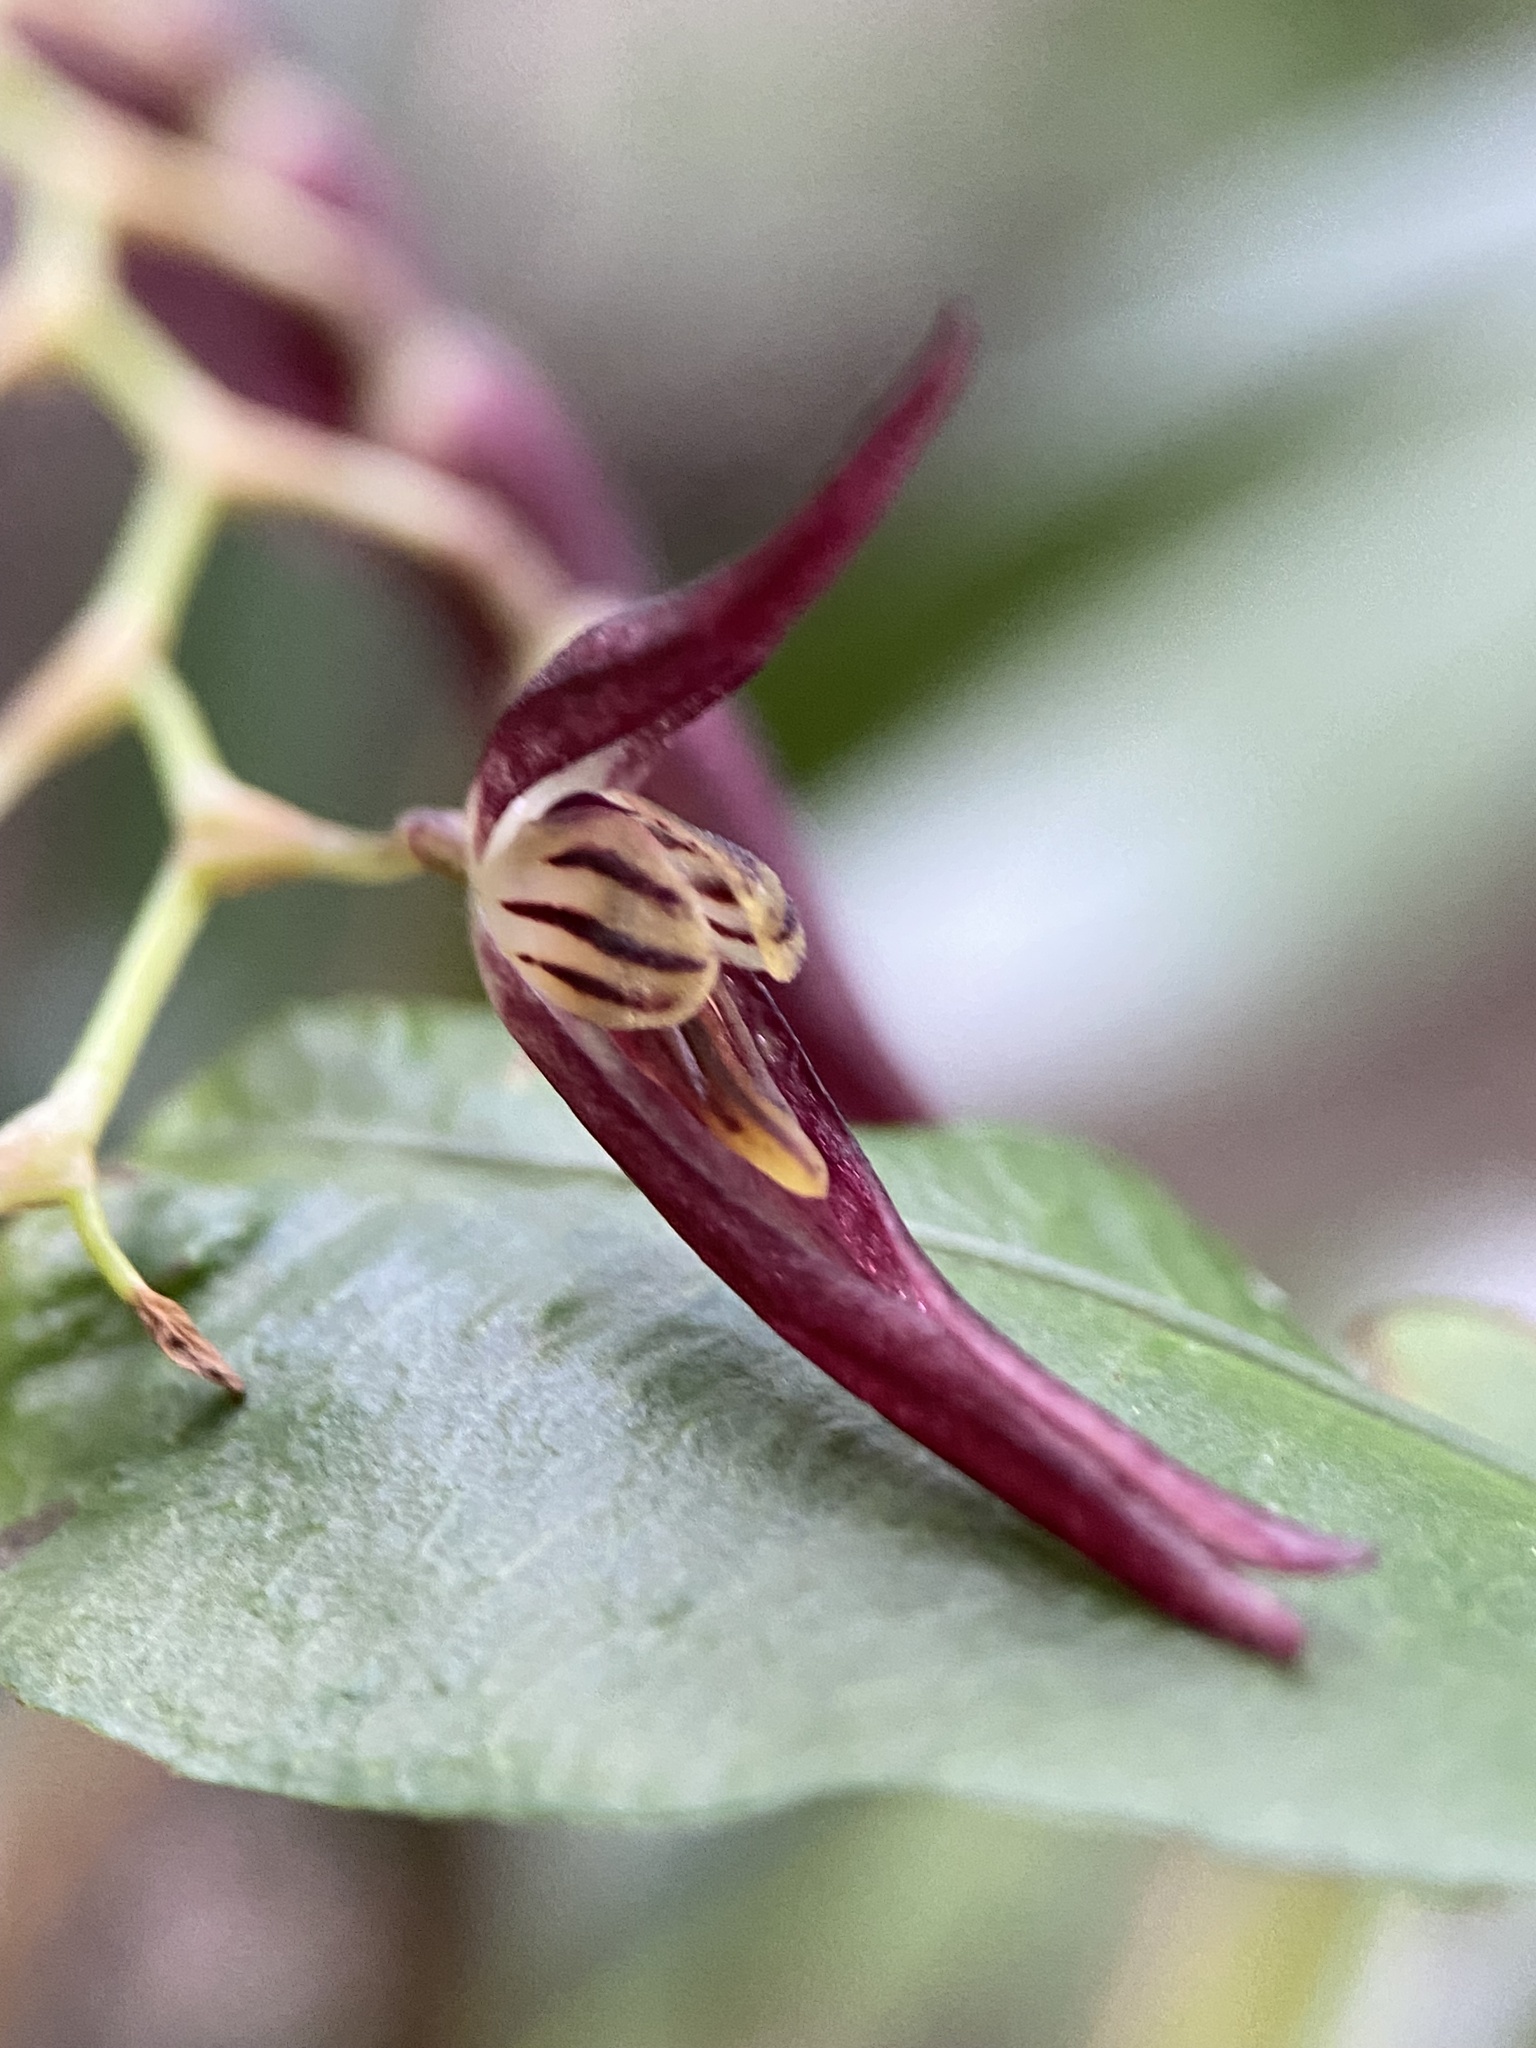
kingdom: Plantae
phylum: Tracheophyta
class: Liliopsida
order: Asparagales
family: Orchidaceae
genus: Stelis
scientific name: Stelis megachlamys
